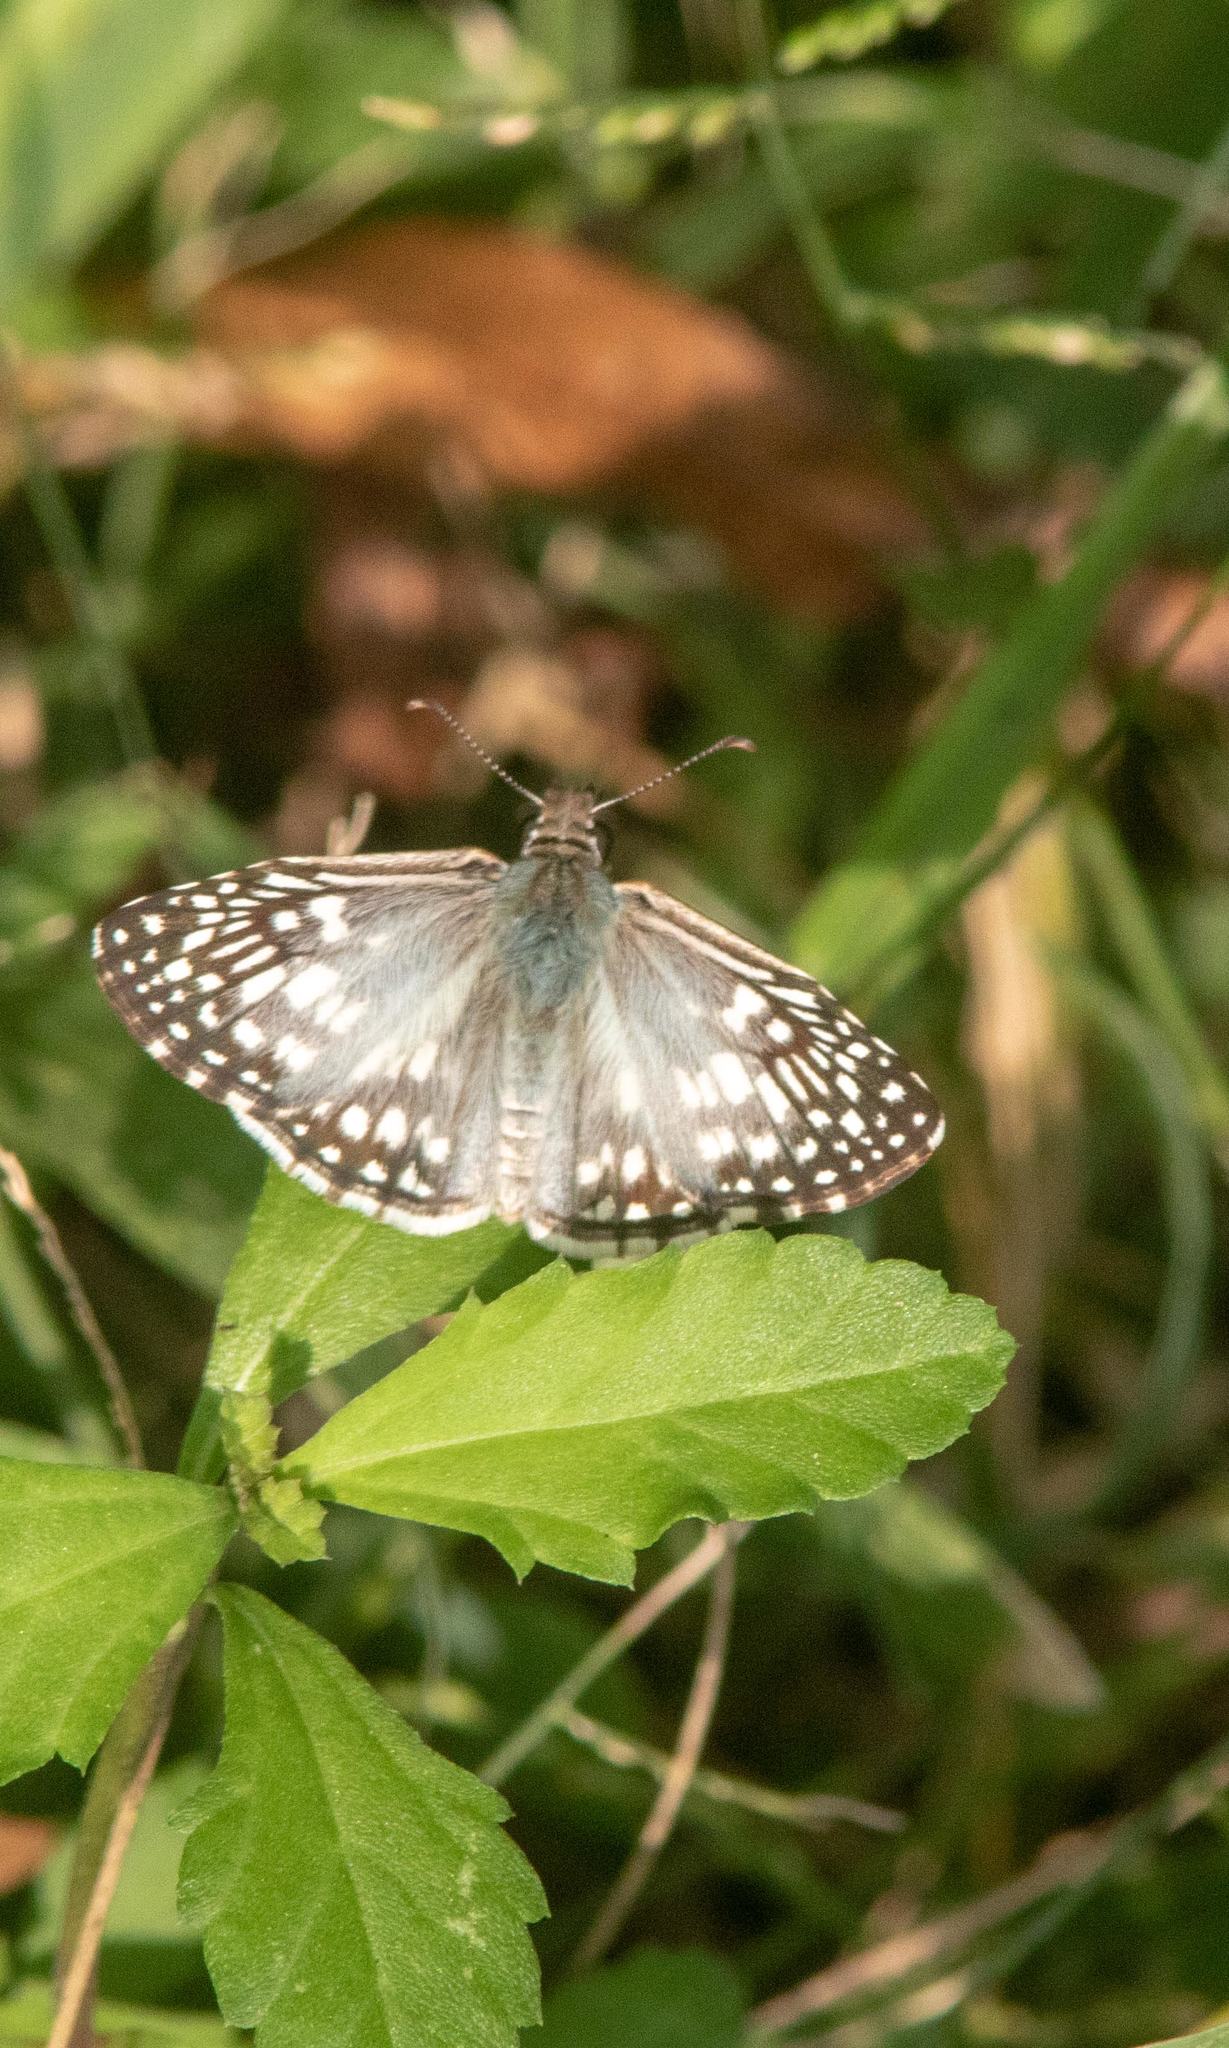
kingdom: Animalia
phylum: Arthropoda
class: Insecta
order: Lepidoptera
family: Hesperiidae
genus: Pyrgus
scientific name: Pyrgus oileus
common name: Tropical checkered-skipper
